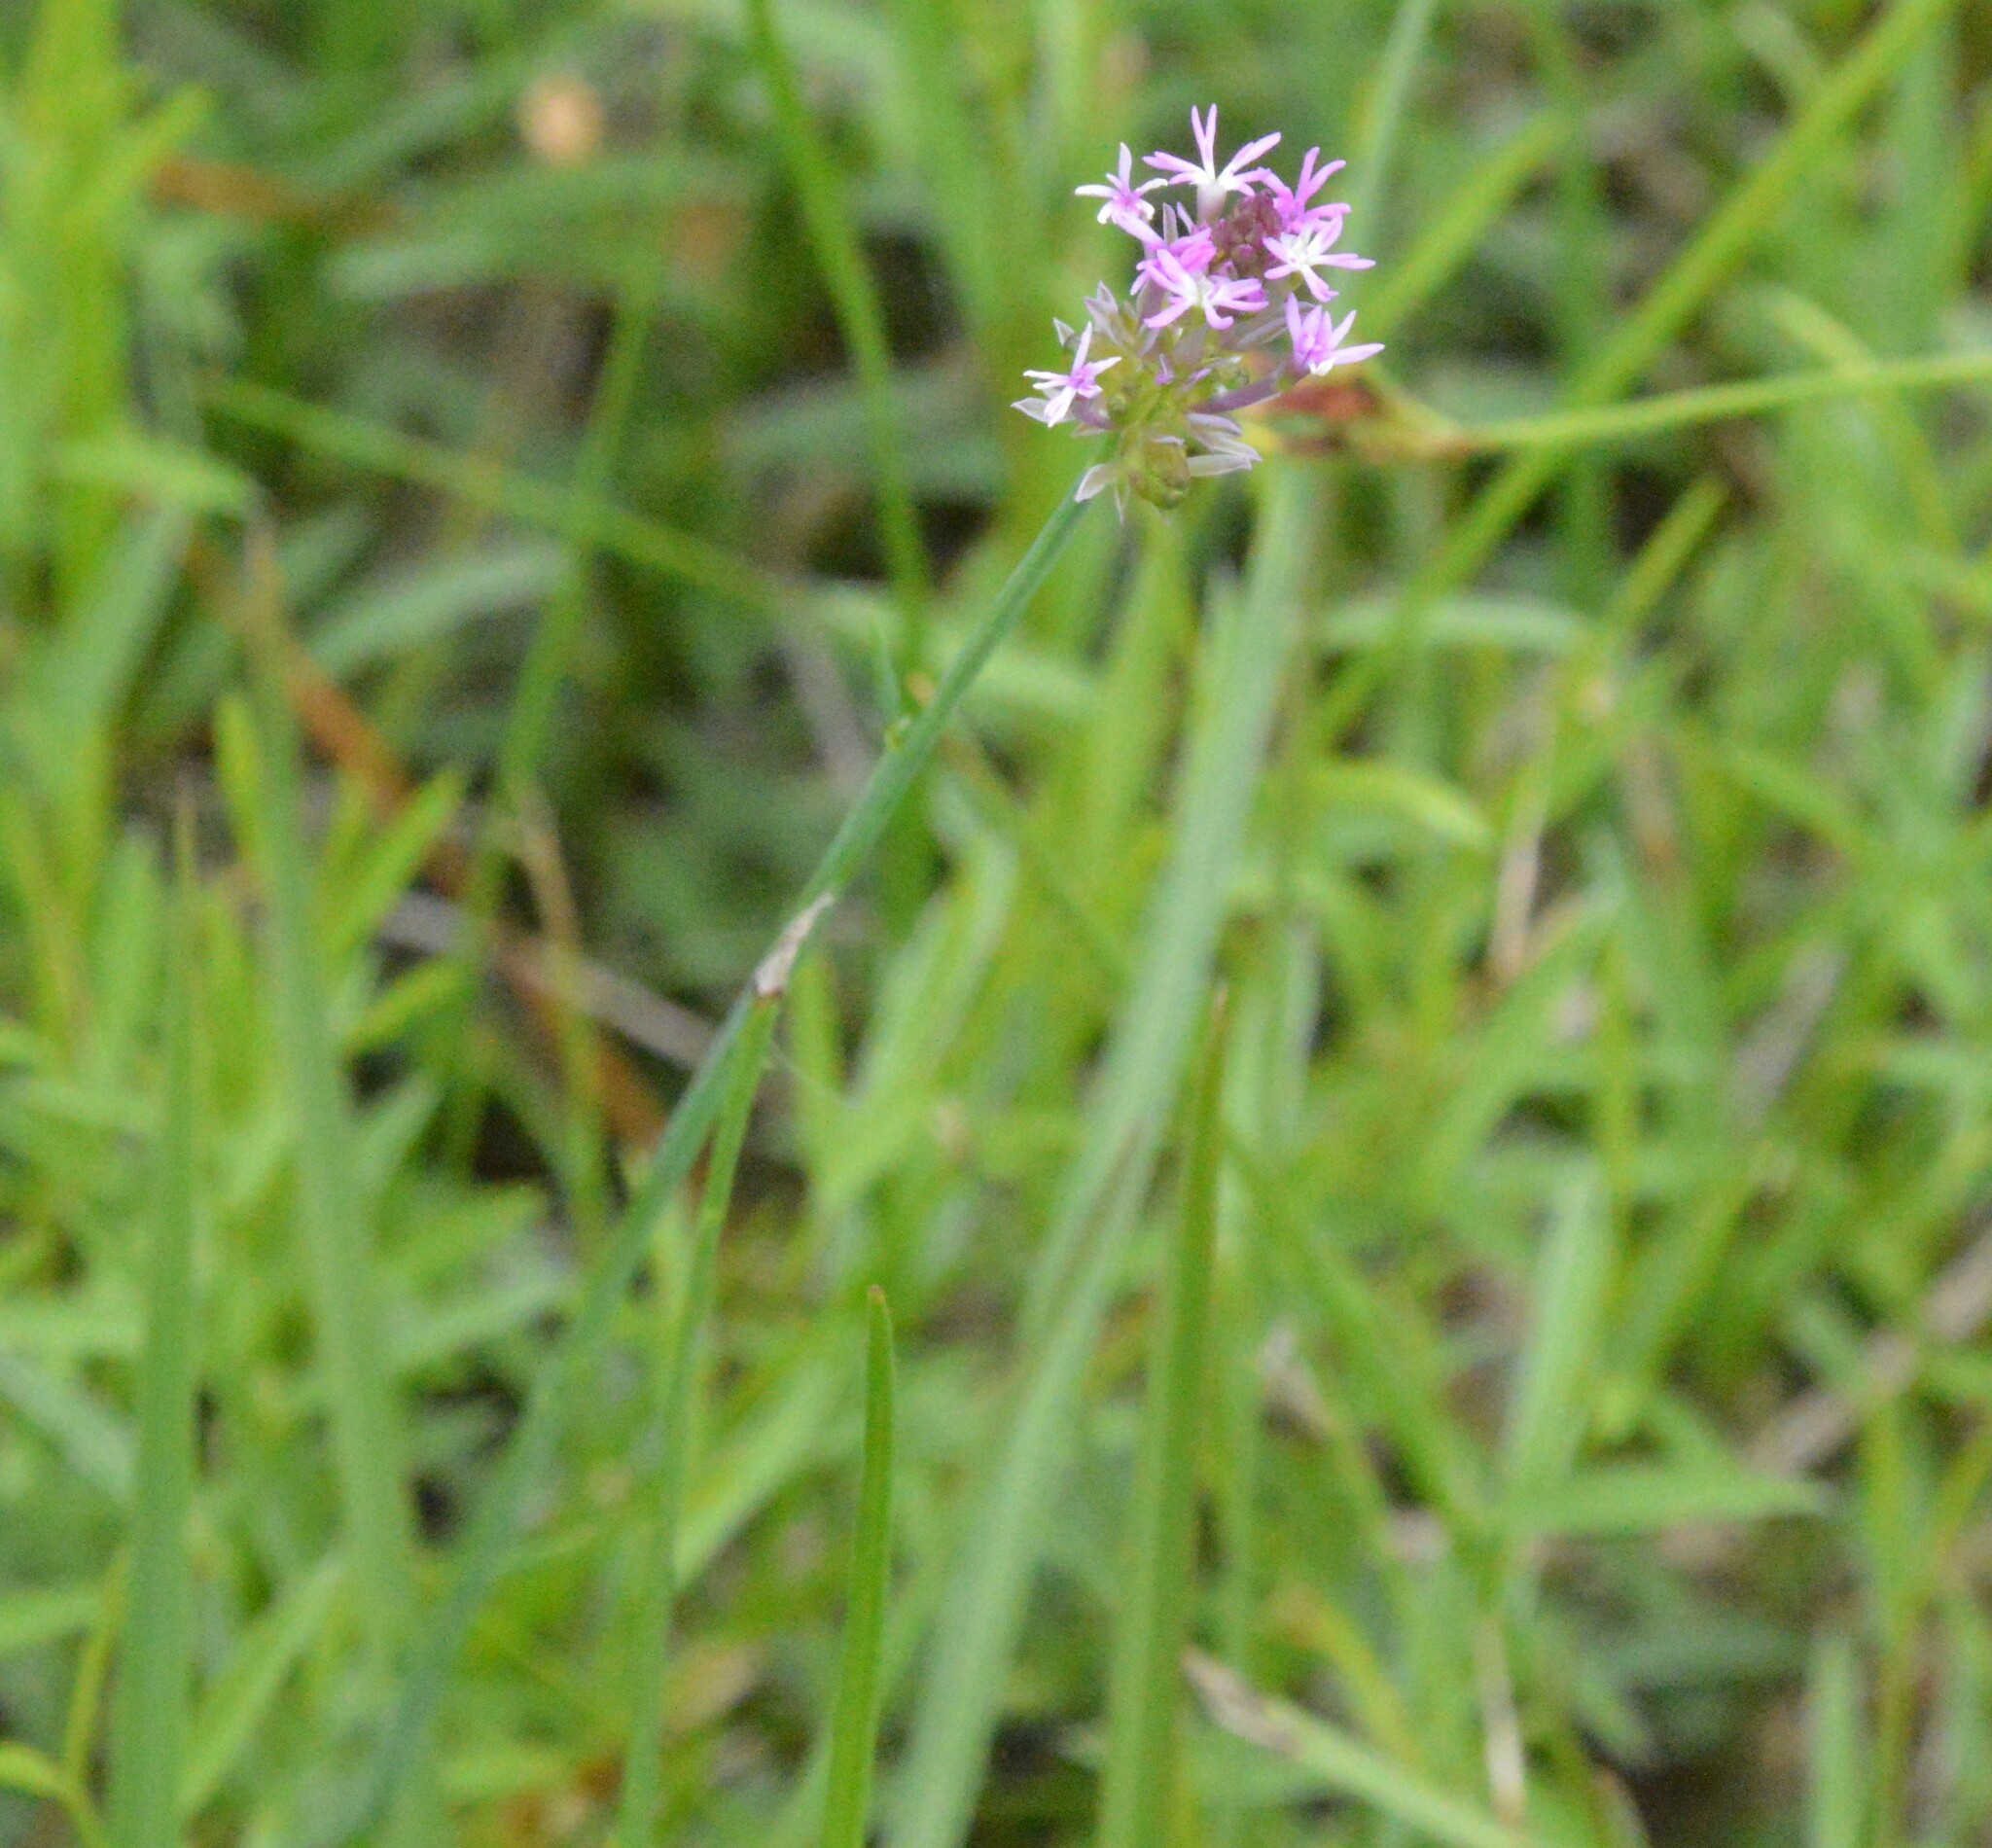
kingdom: Plantae
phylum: Tracheophyta
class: Magnoliopsida
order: Fabales
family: Polygalaceae
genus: Polygala
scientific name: Polygala incarnata
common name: Pink milkwort
